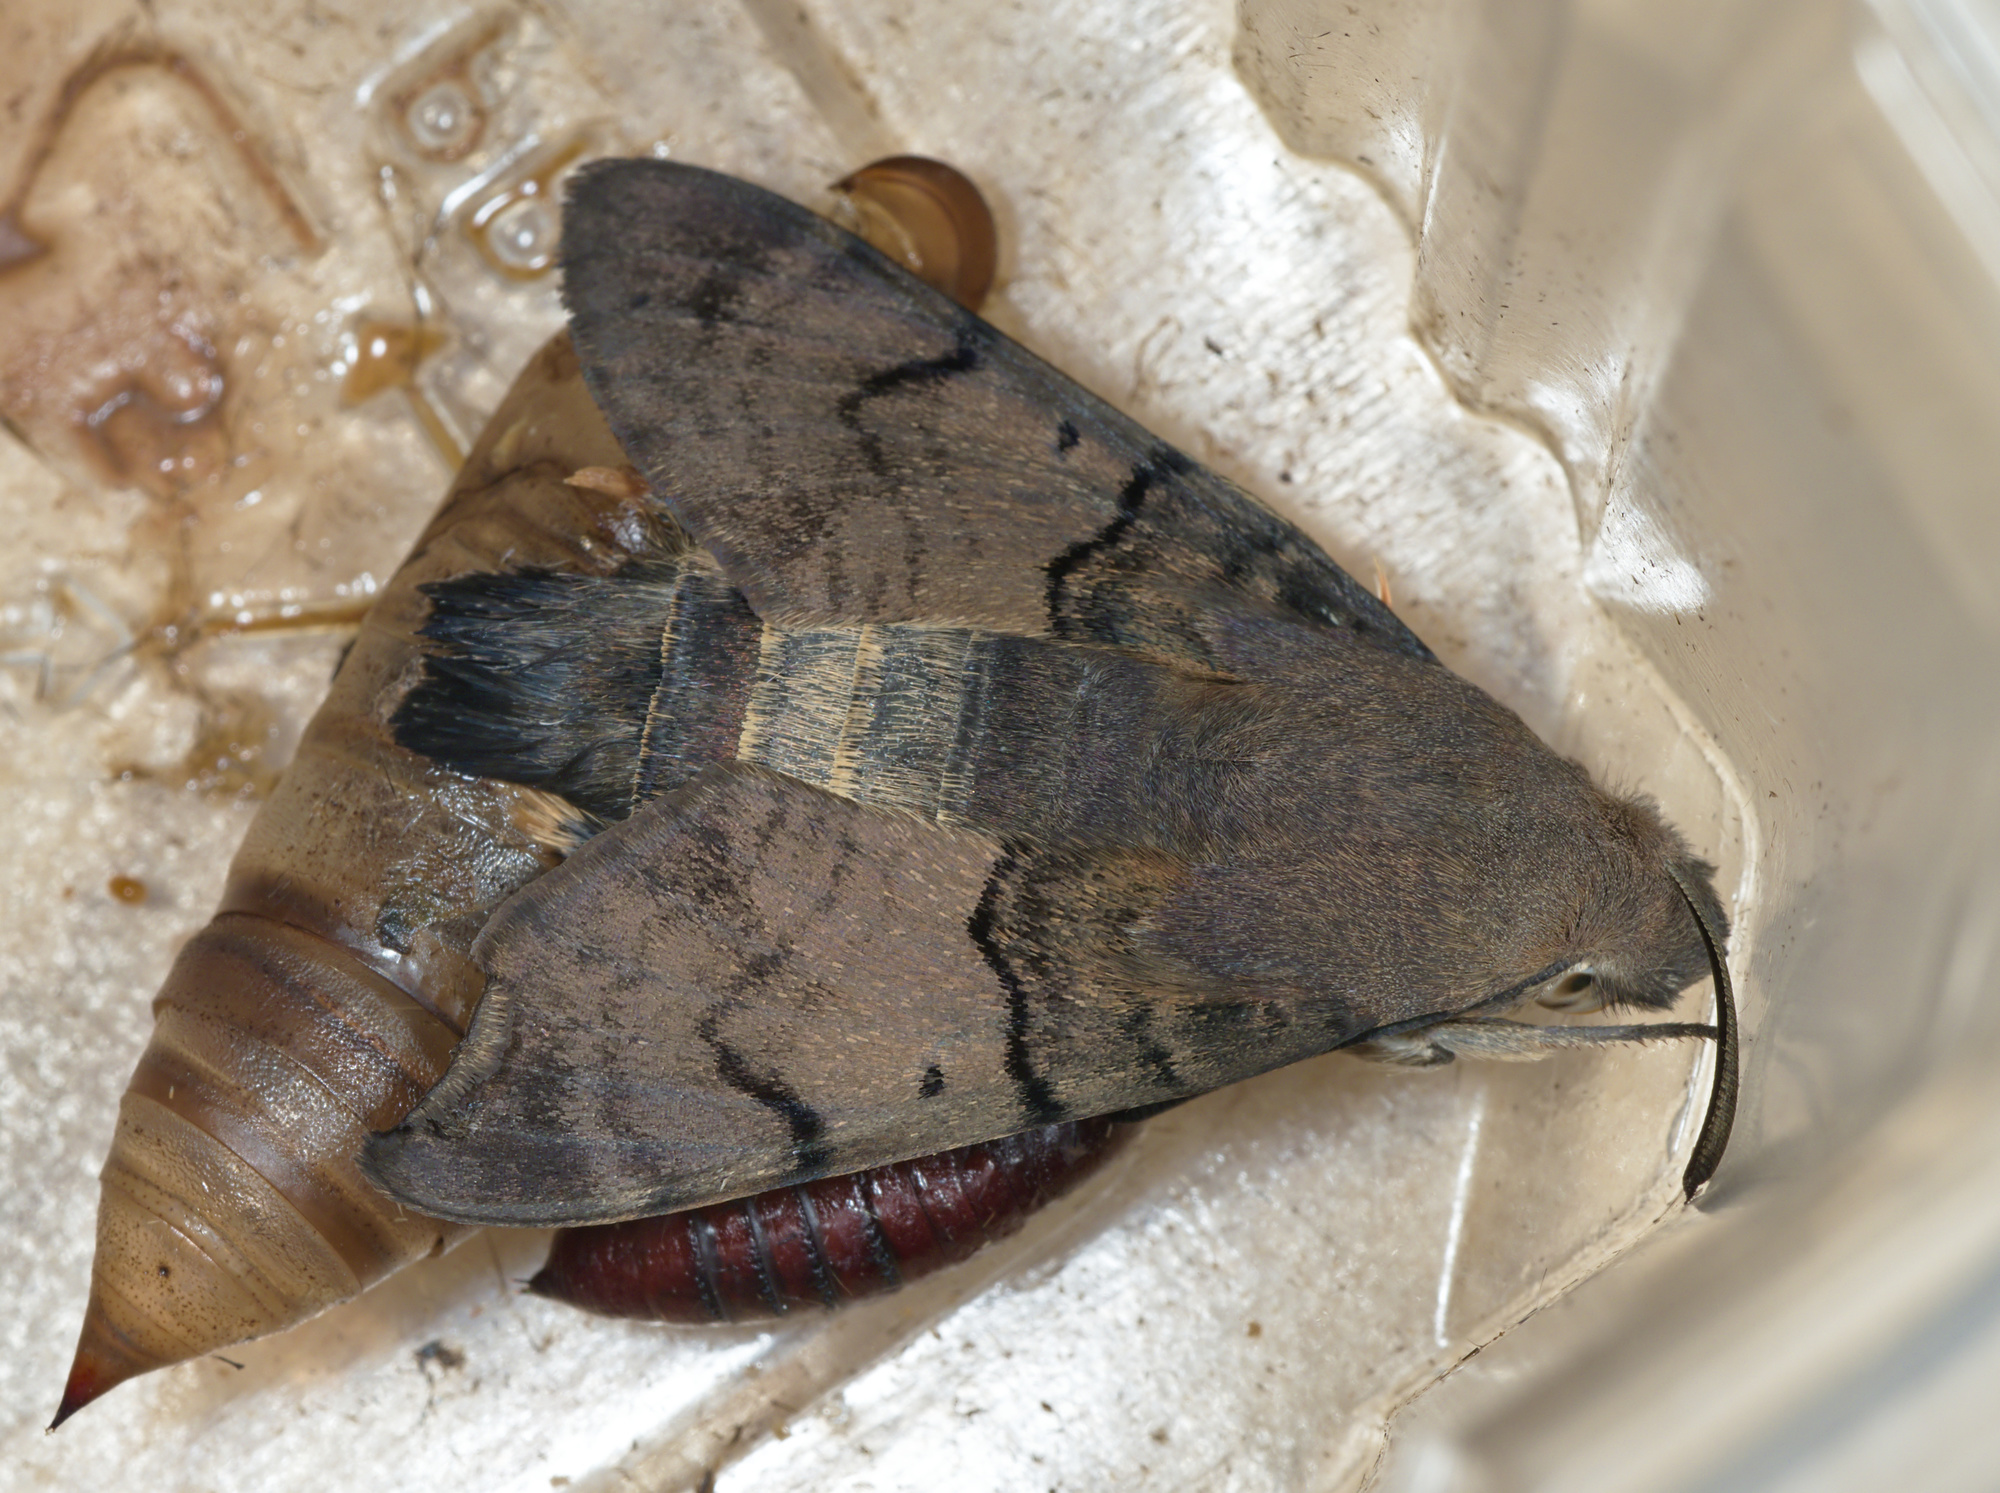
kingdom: Animalia
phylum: Arthropoda
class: Insecta
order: Lepidoptera
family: Sphingidae
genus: Macroglossum
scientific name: Macroglossum stellatarum
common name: Humming-bird hawk-moth
